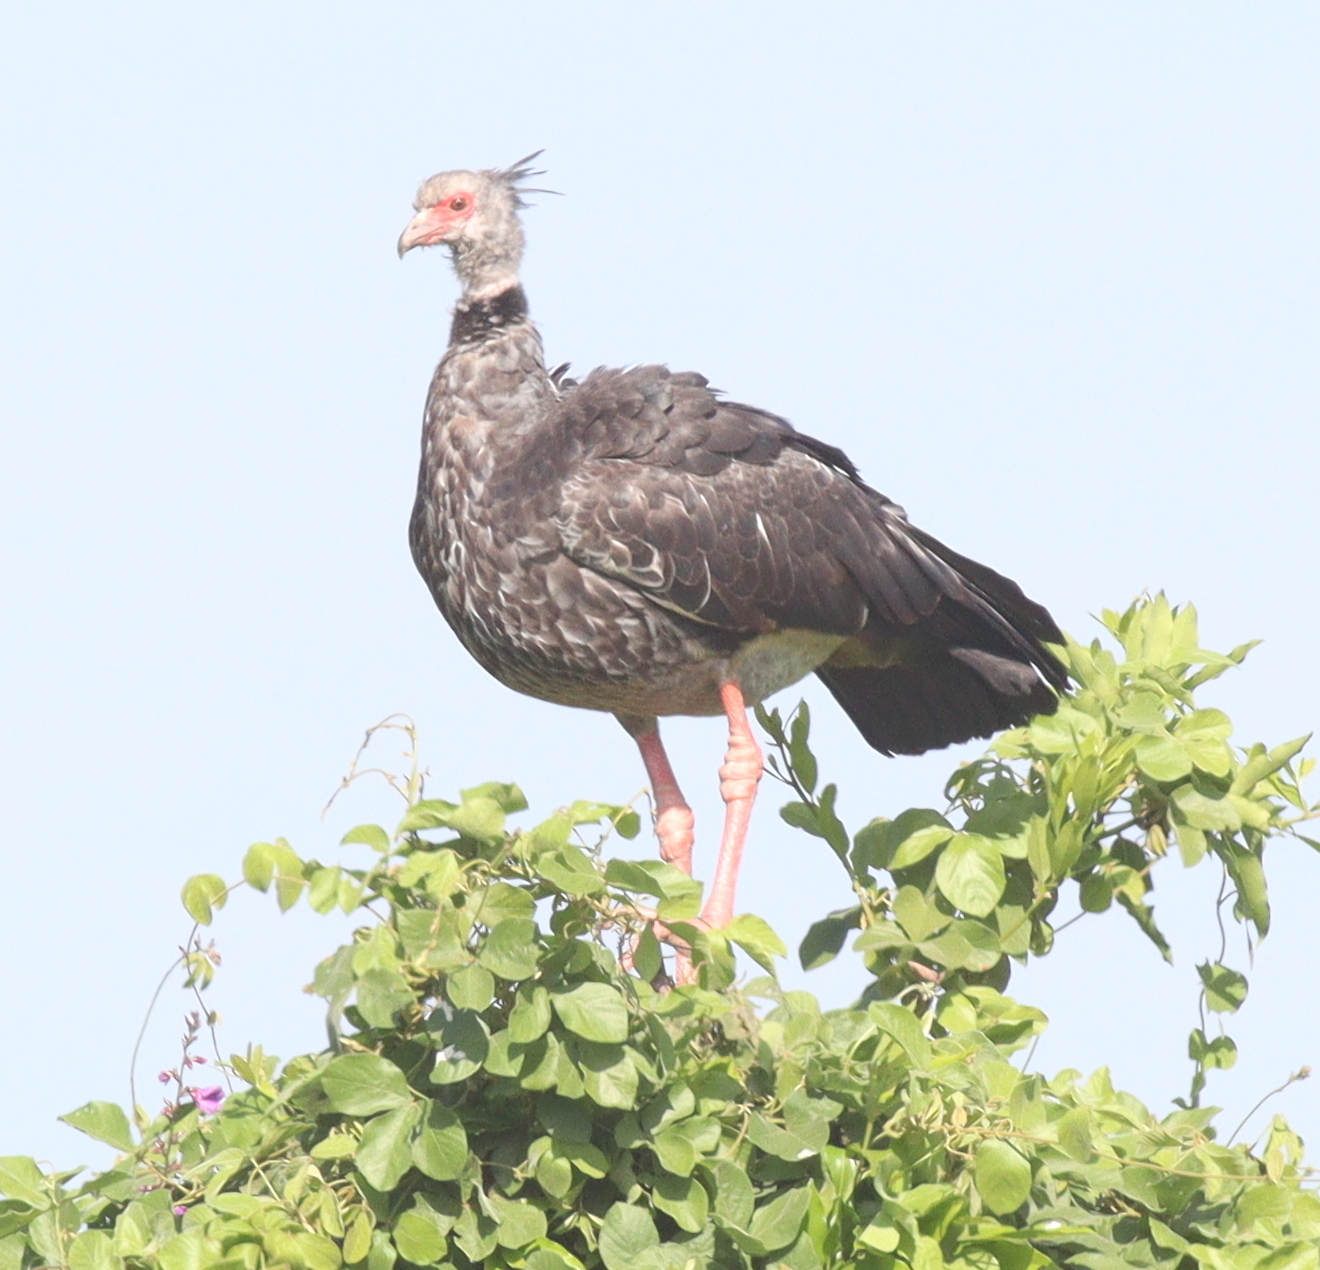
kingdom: Animalia
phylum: Chordata
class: Aves
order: Anseriformes
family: Anhimidae
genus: Chauna
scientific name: Chauna torquata
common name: Southern screamer
